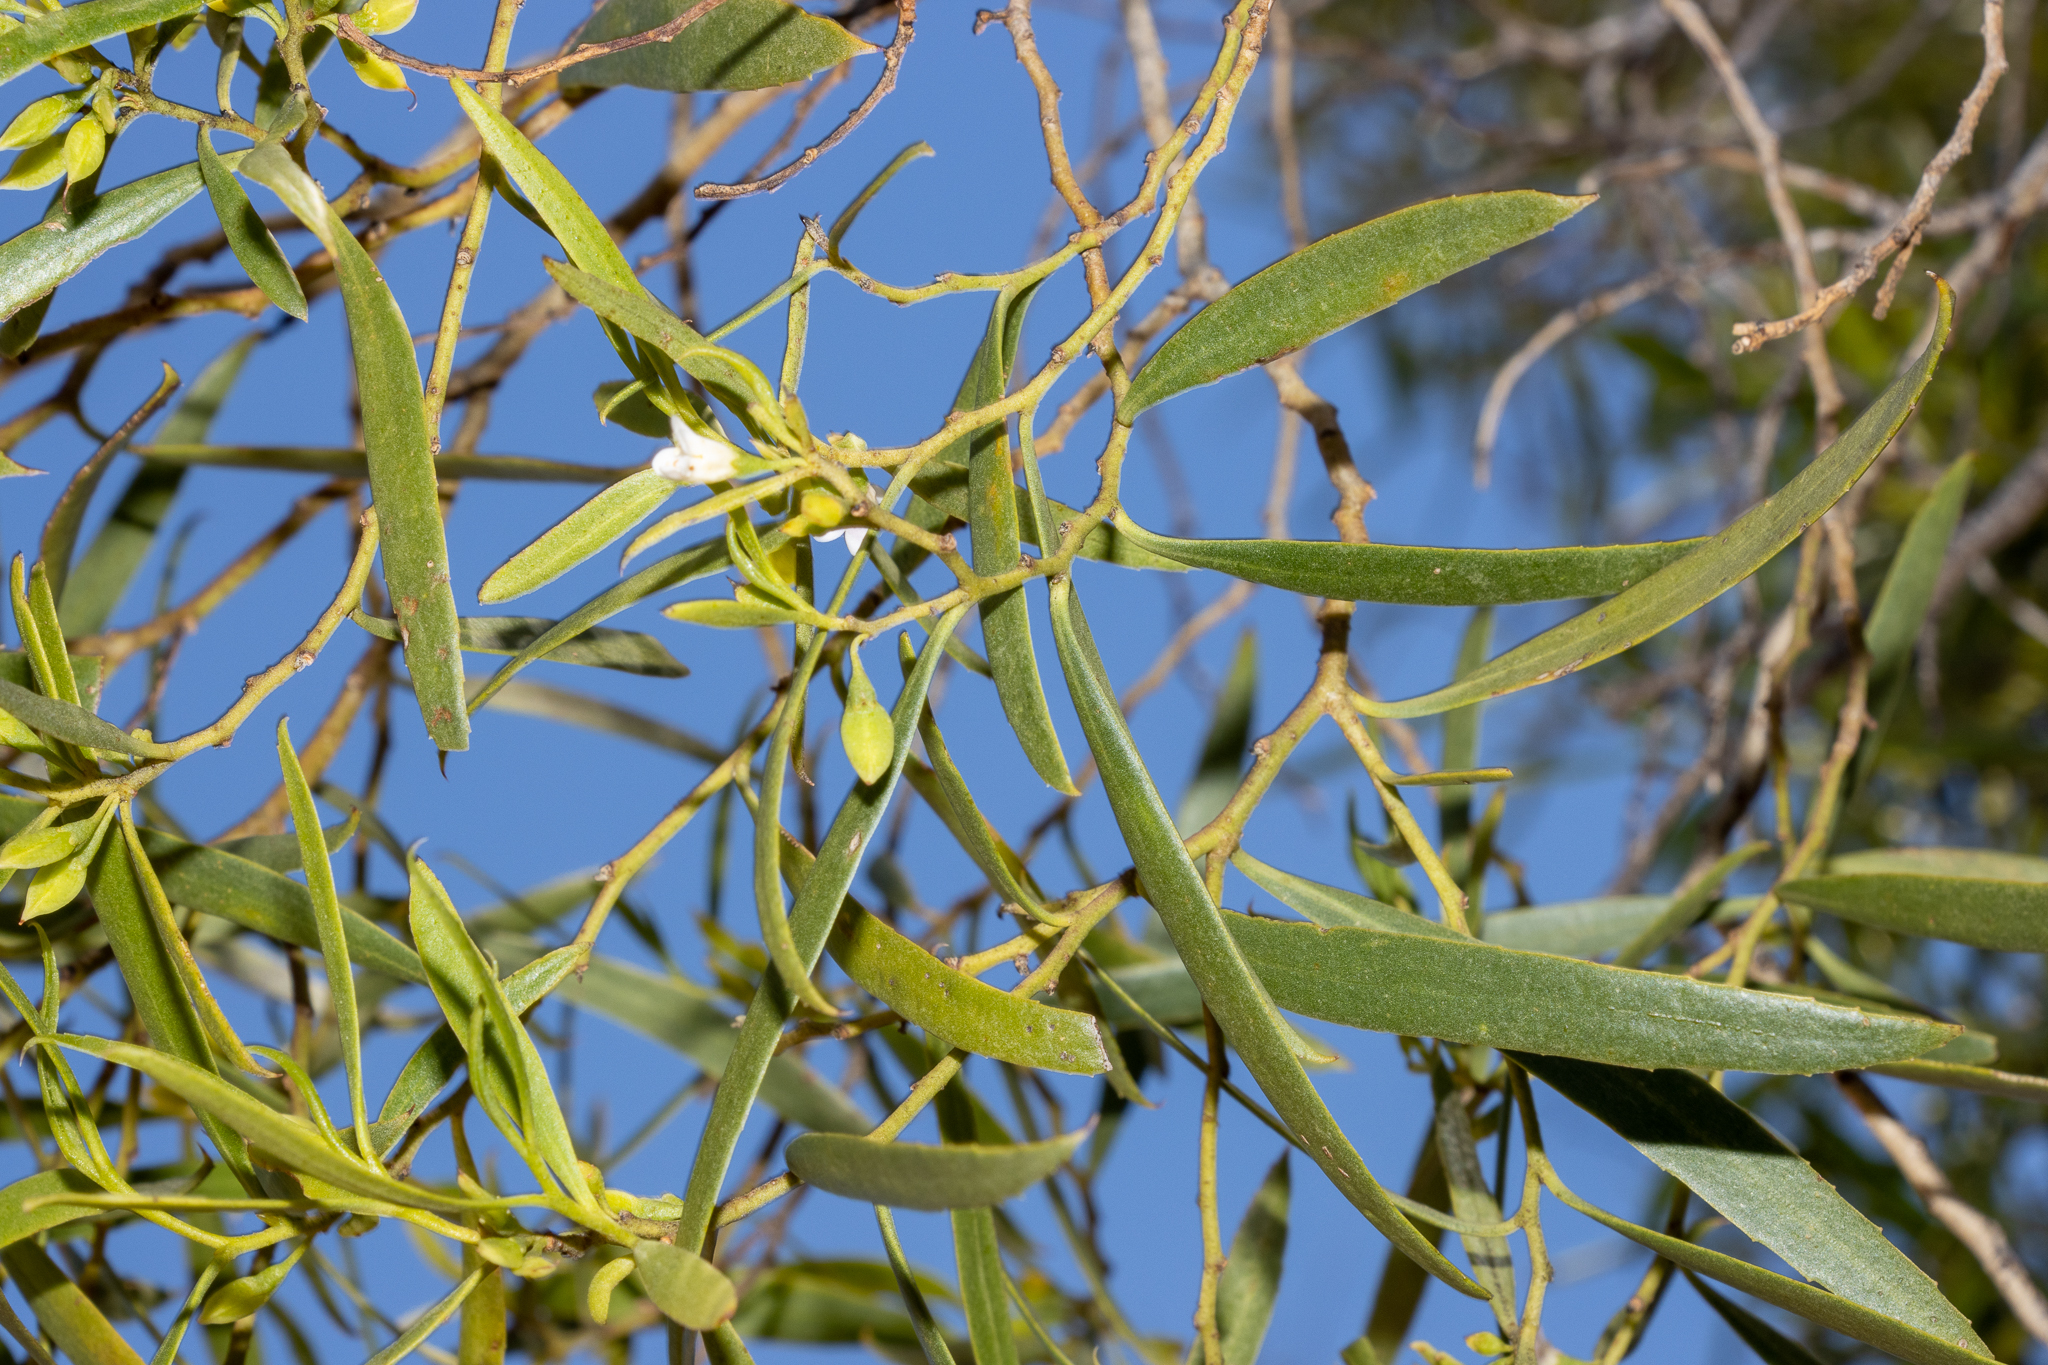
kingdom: Plantae
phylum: Tracheophyta
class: Magnoliopsida
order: Lamiales
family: Scrophulariaceae
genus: Myoporum
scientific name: Myoporum platycarpum
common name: Sugartree
